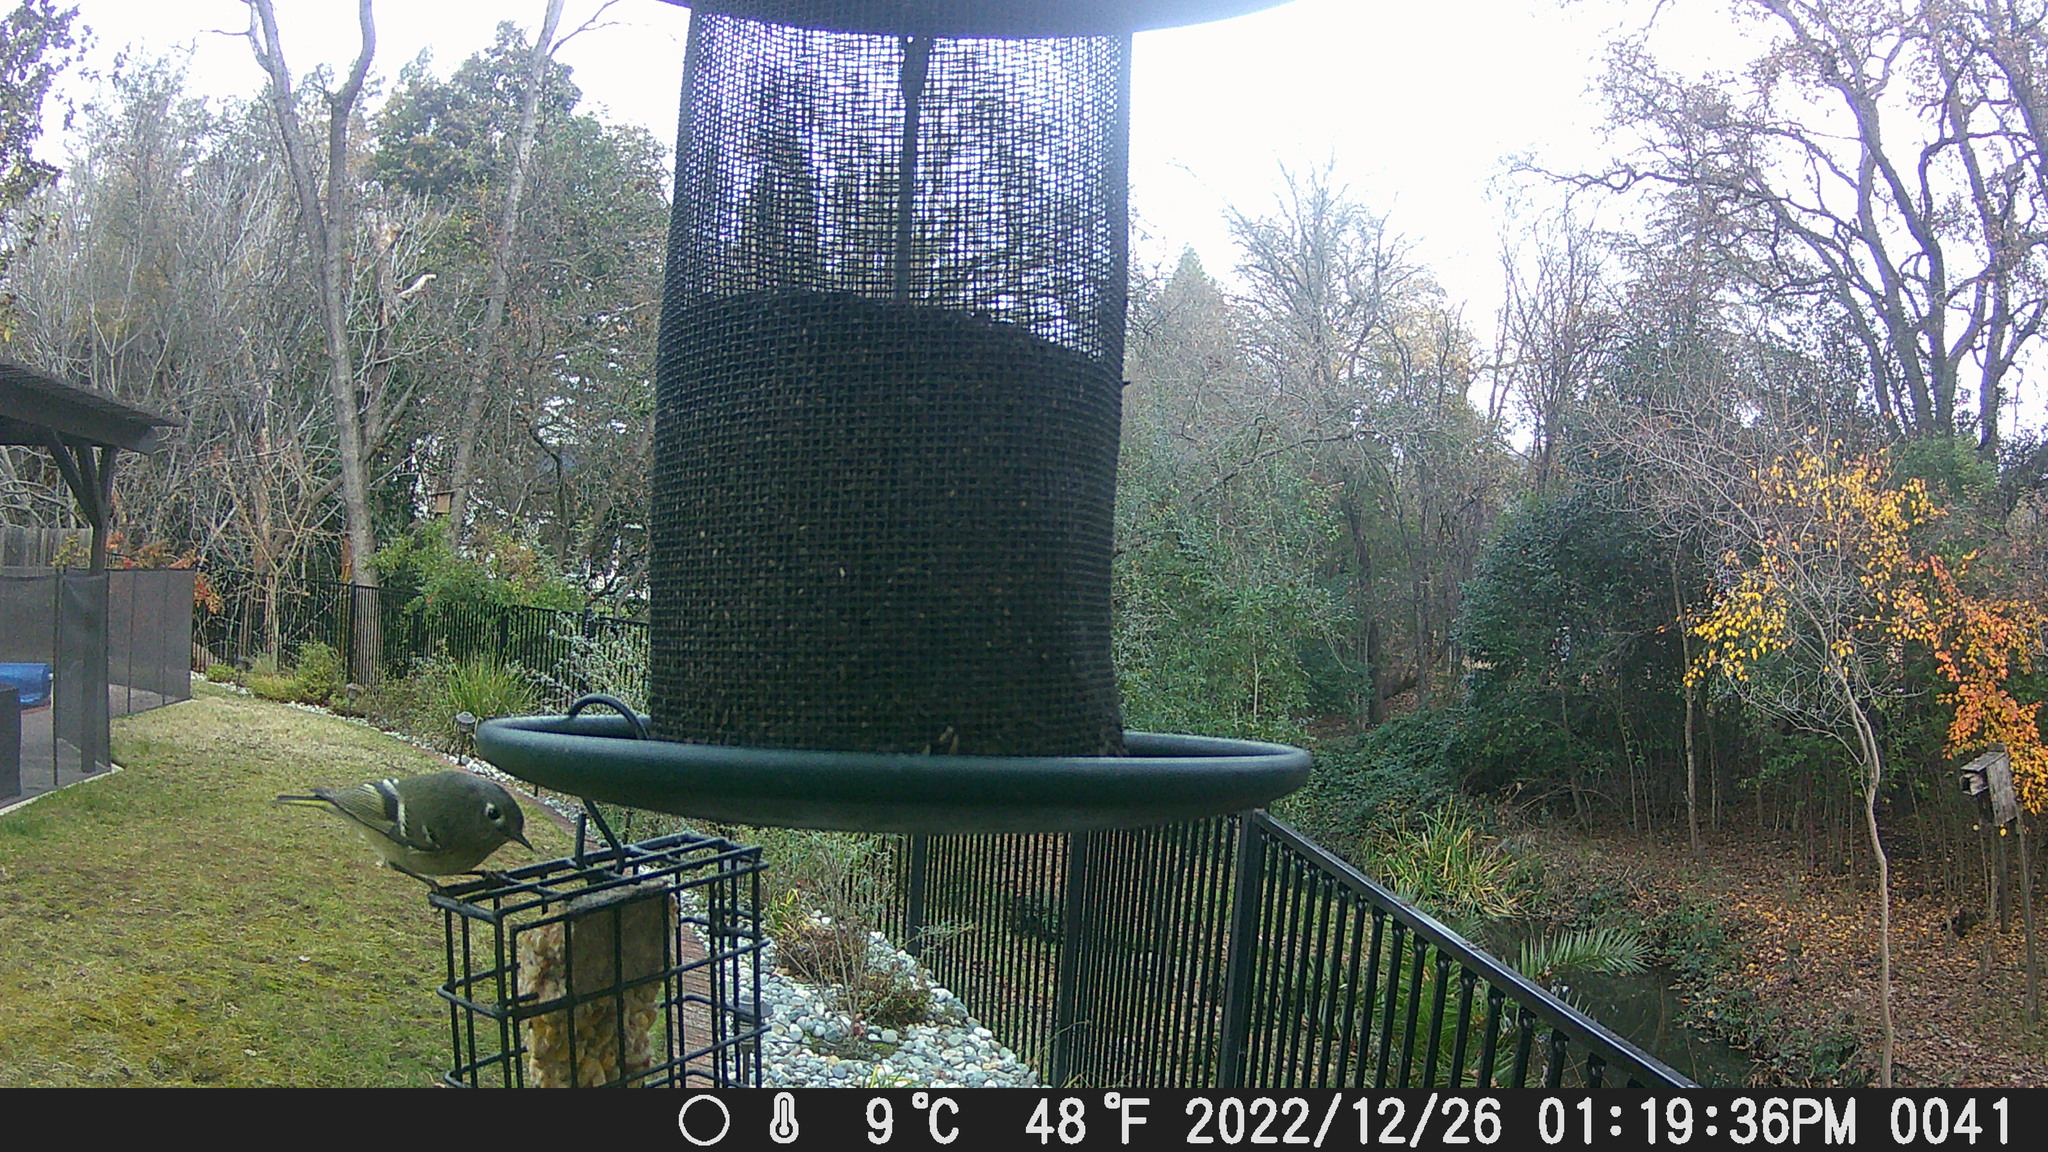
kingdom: Animalia
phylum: Chordata
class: Aves
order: Passeriformes
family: Regulidae
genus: Regulus
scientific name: Regulus calendula
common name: Ruby-crowned kinglet
